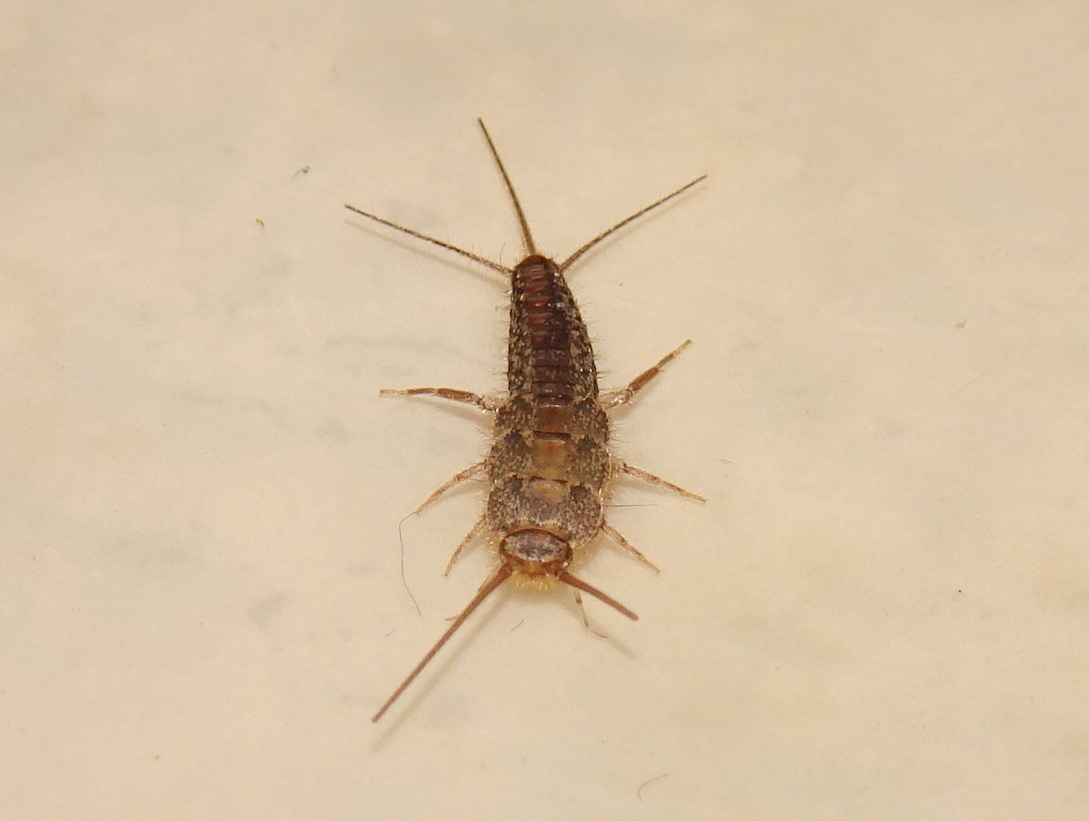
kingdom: Animalia
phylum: Arthropoda
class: Insecta
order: Zygentoma
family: Lepismatidae
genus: Ctenolepisma
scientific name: Ctenolepisma lineata
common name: Four-lined silverfish
